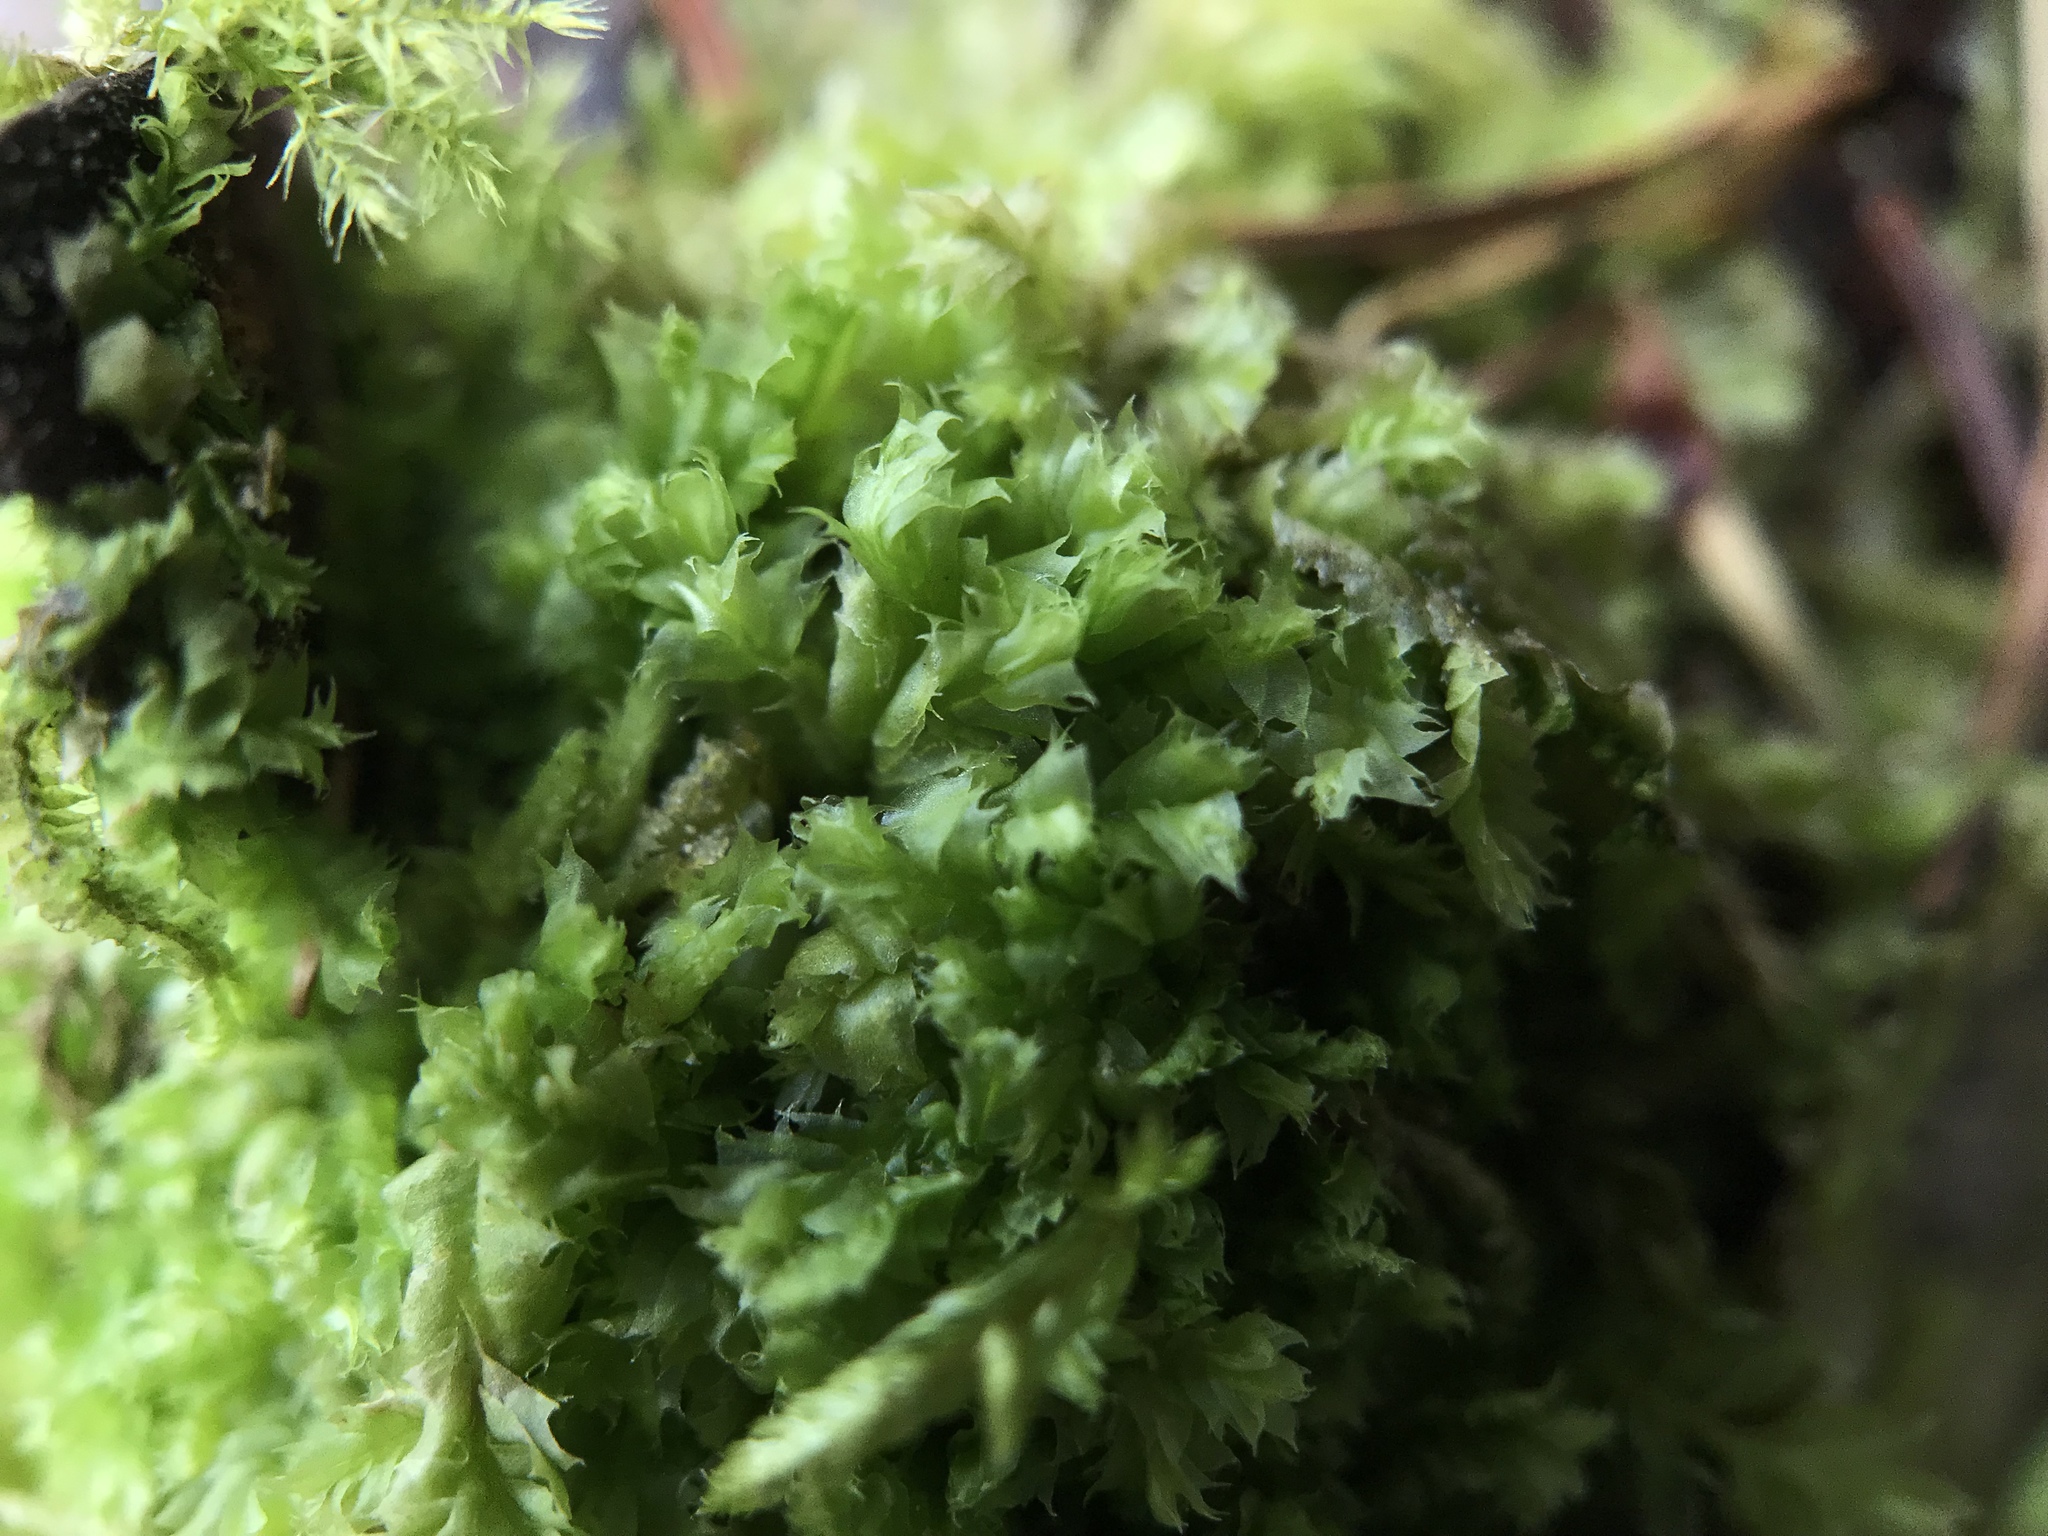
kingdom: Plantae
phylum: Marchantiophyta
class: Jungermanniopsida
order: Jungermanniales
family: Lophocoleaceae
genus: Lophocolea
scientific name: Lophocolea bidentata
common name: Bifid crestwort
